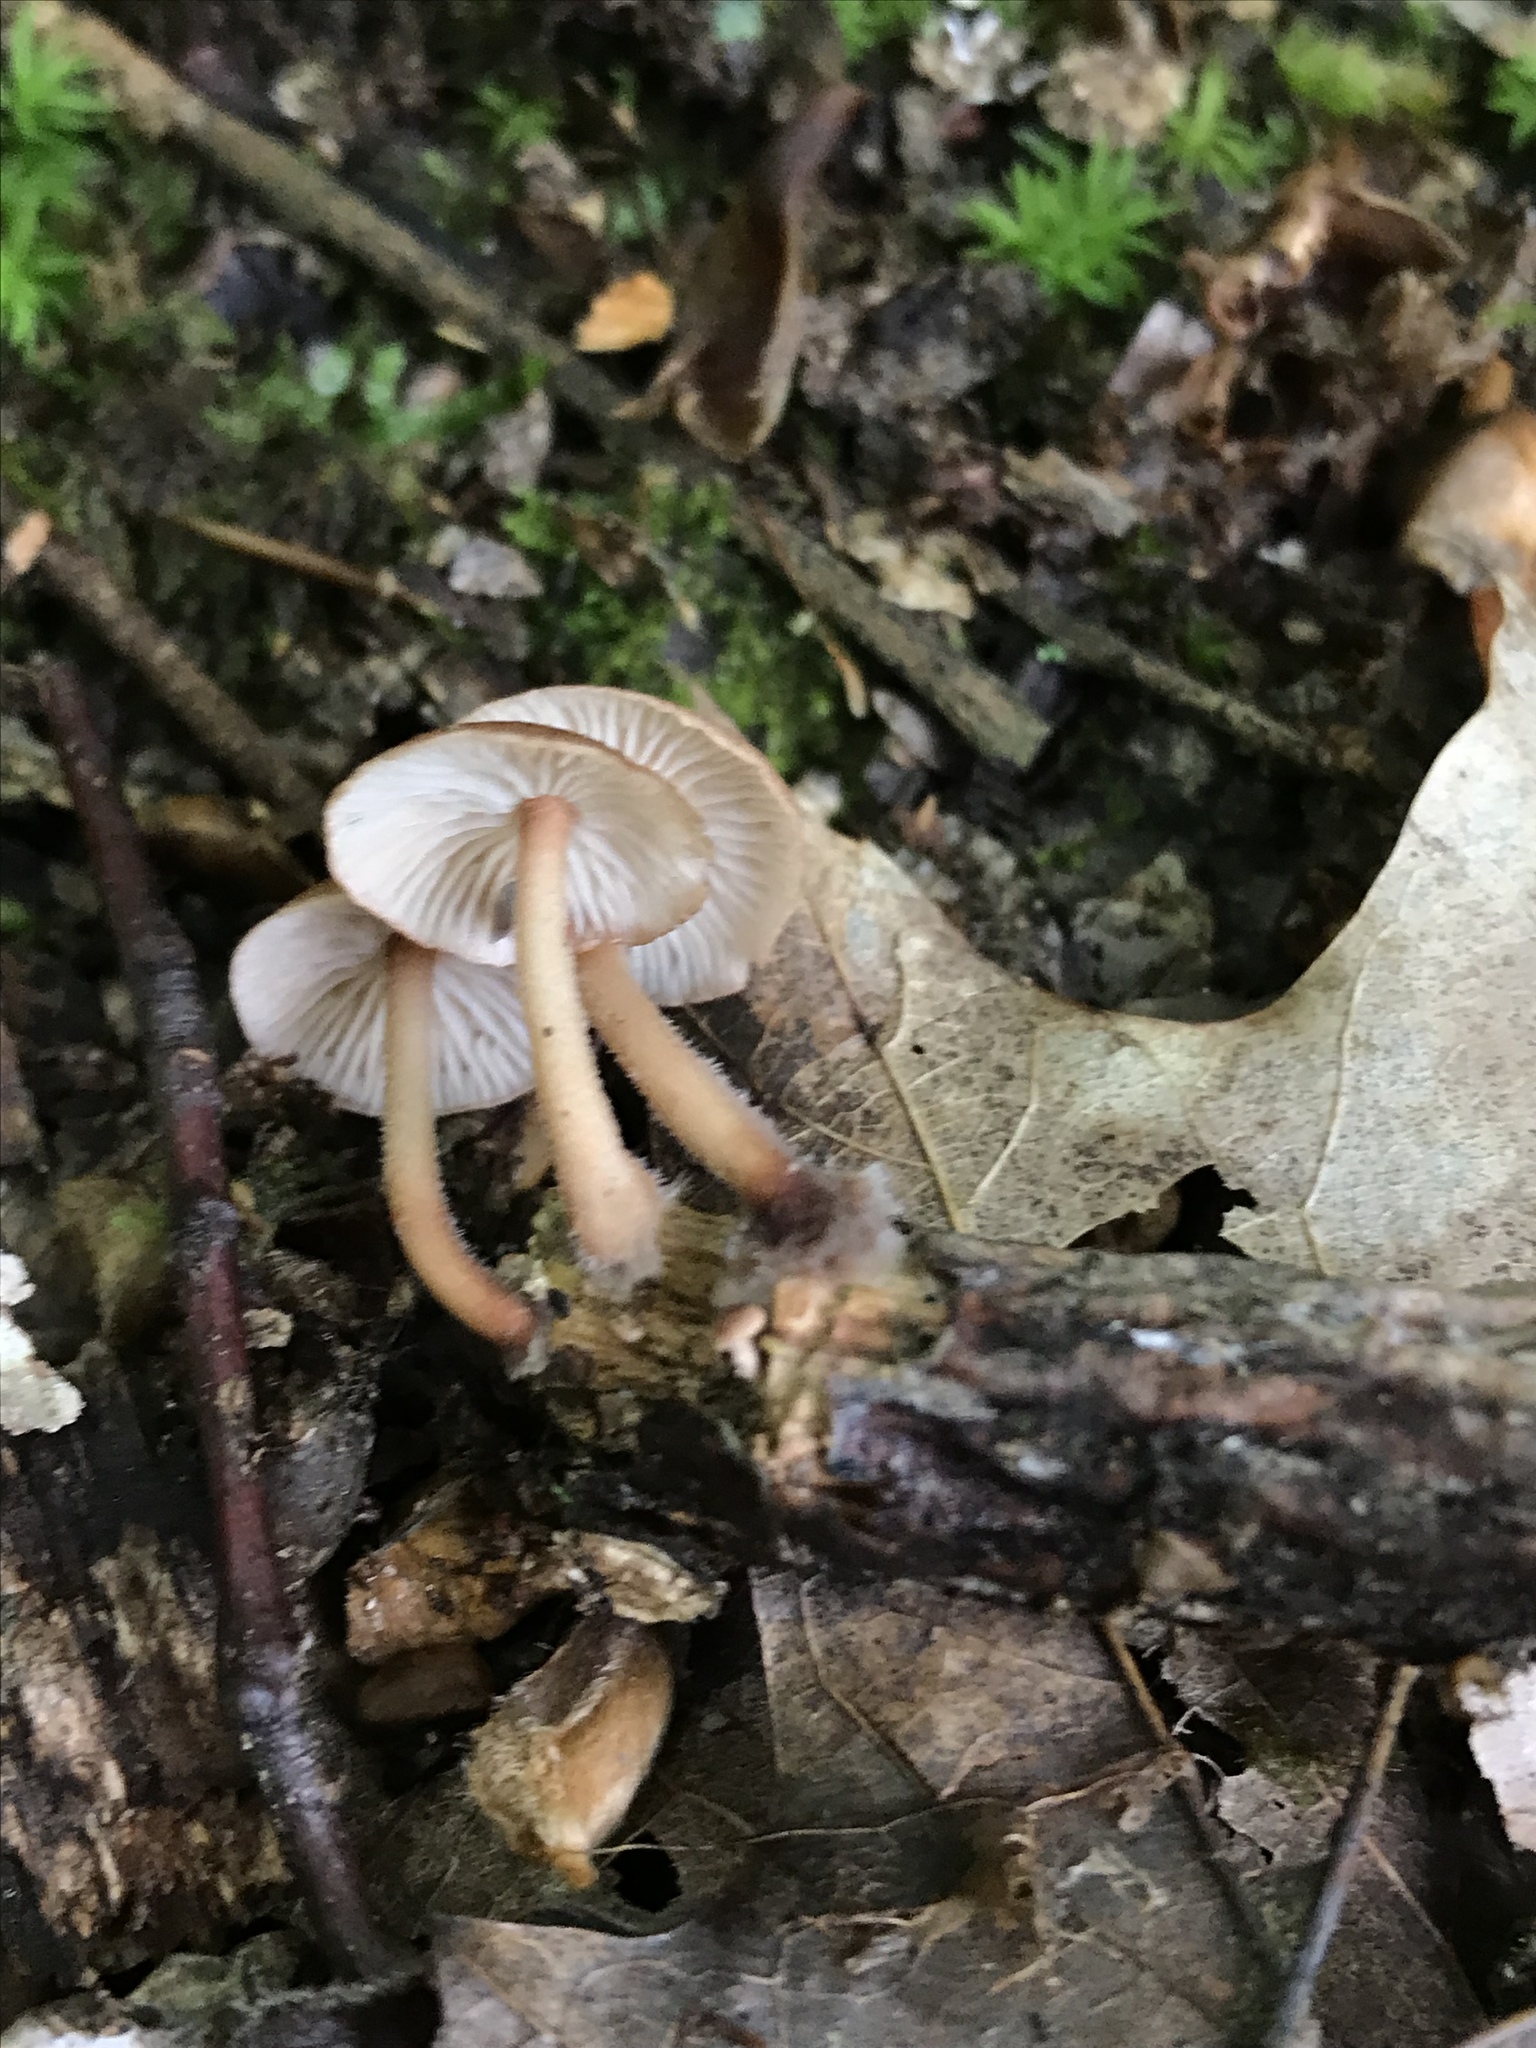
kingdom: Fungi
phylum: Basidiomycota
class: Agaricomycetes
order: Agaricales
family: Omphalotaceae
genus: Collybiopsis
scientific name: Collybiopsis subnuda
